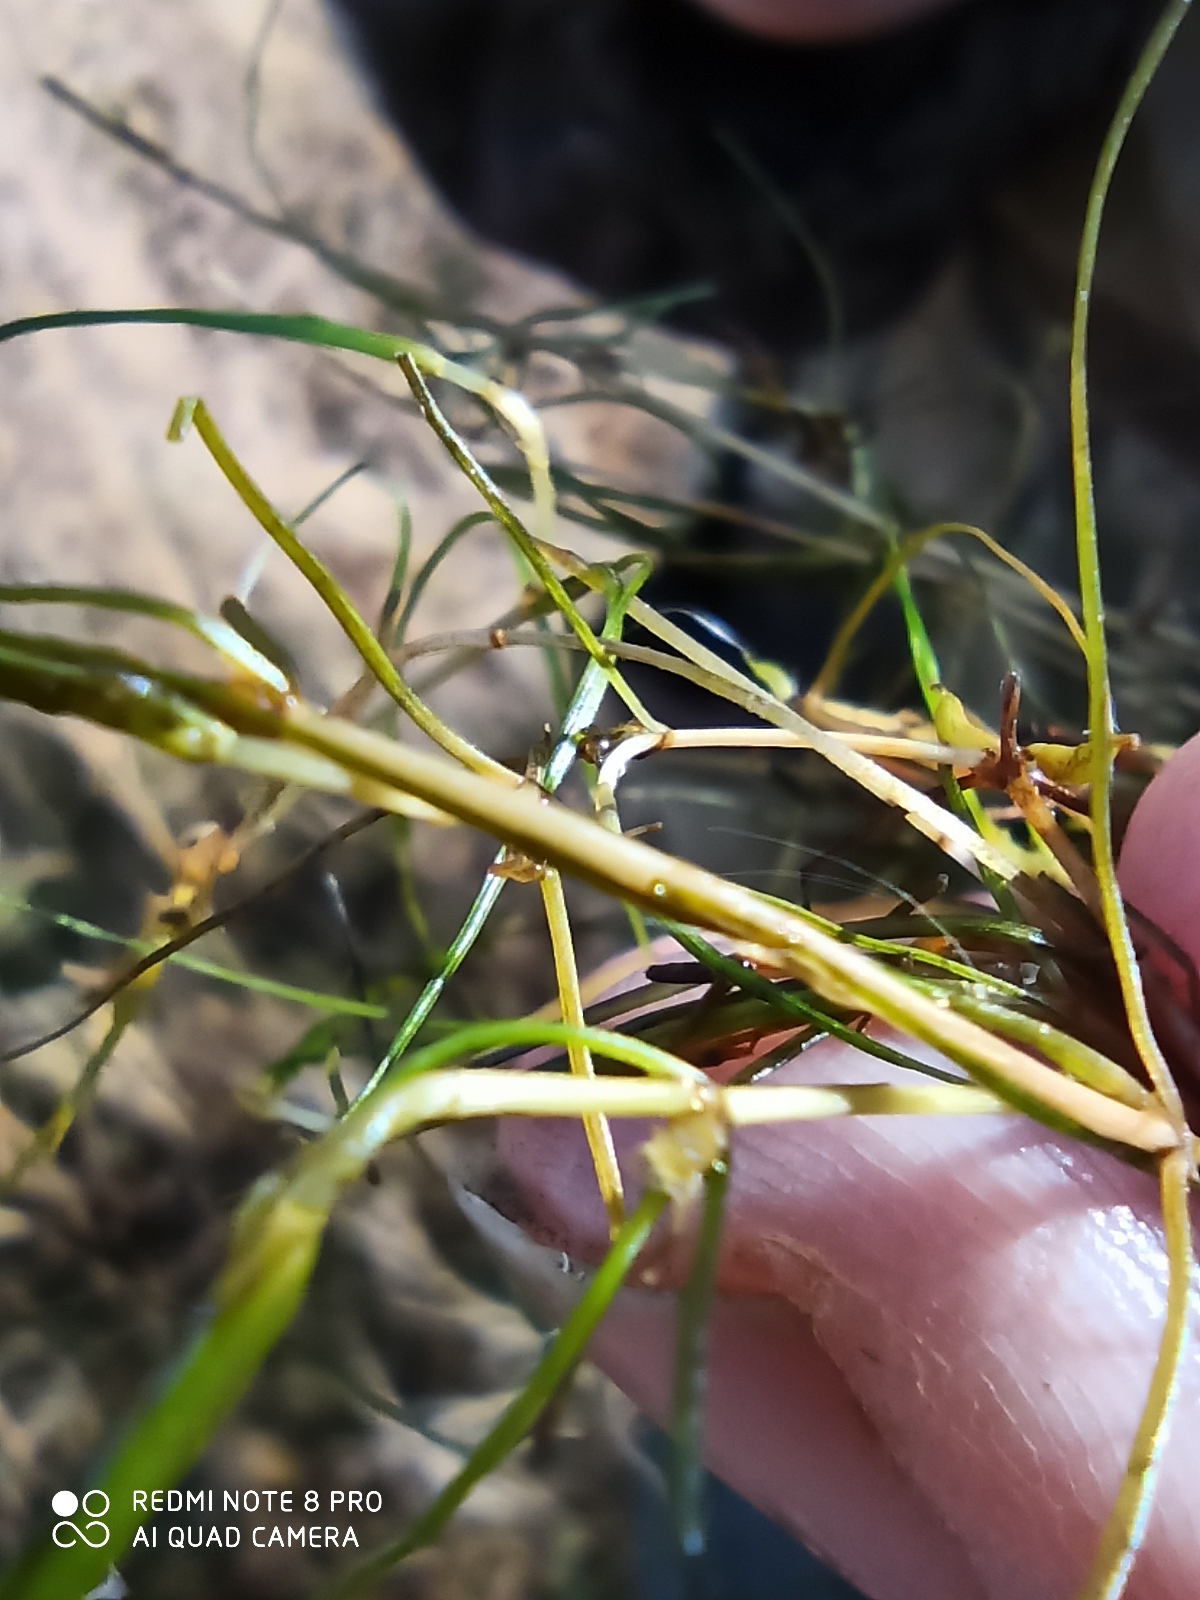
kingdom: Plantae
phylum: Tracheophyta
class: Liliopsida
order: Alismatales
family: Potamogetonaceae
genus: Zannichellia
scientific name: Zannichellia palustris
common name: Horned pondweed
